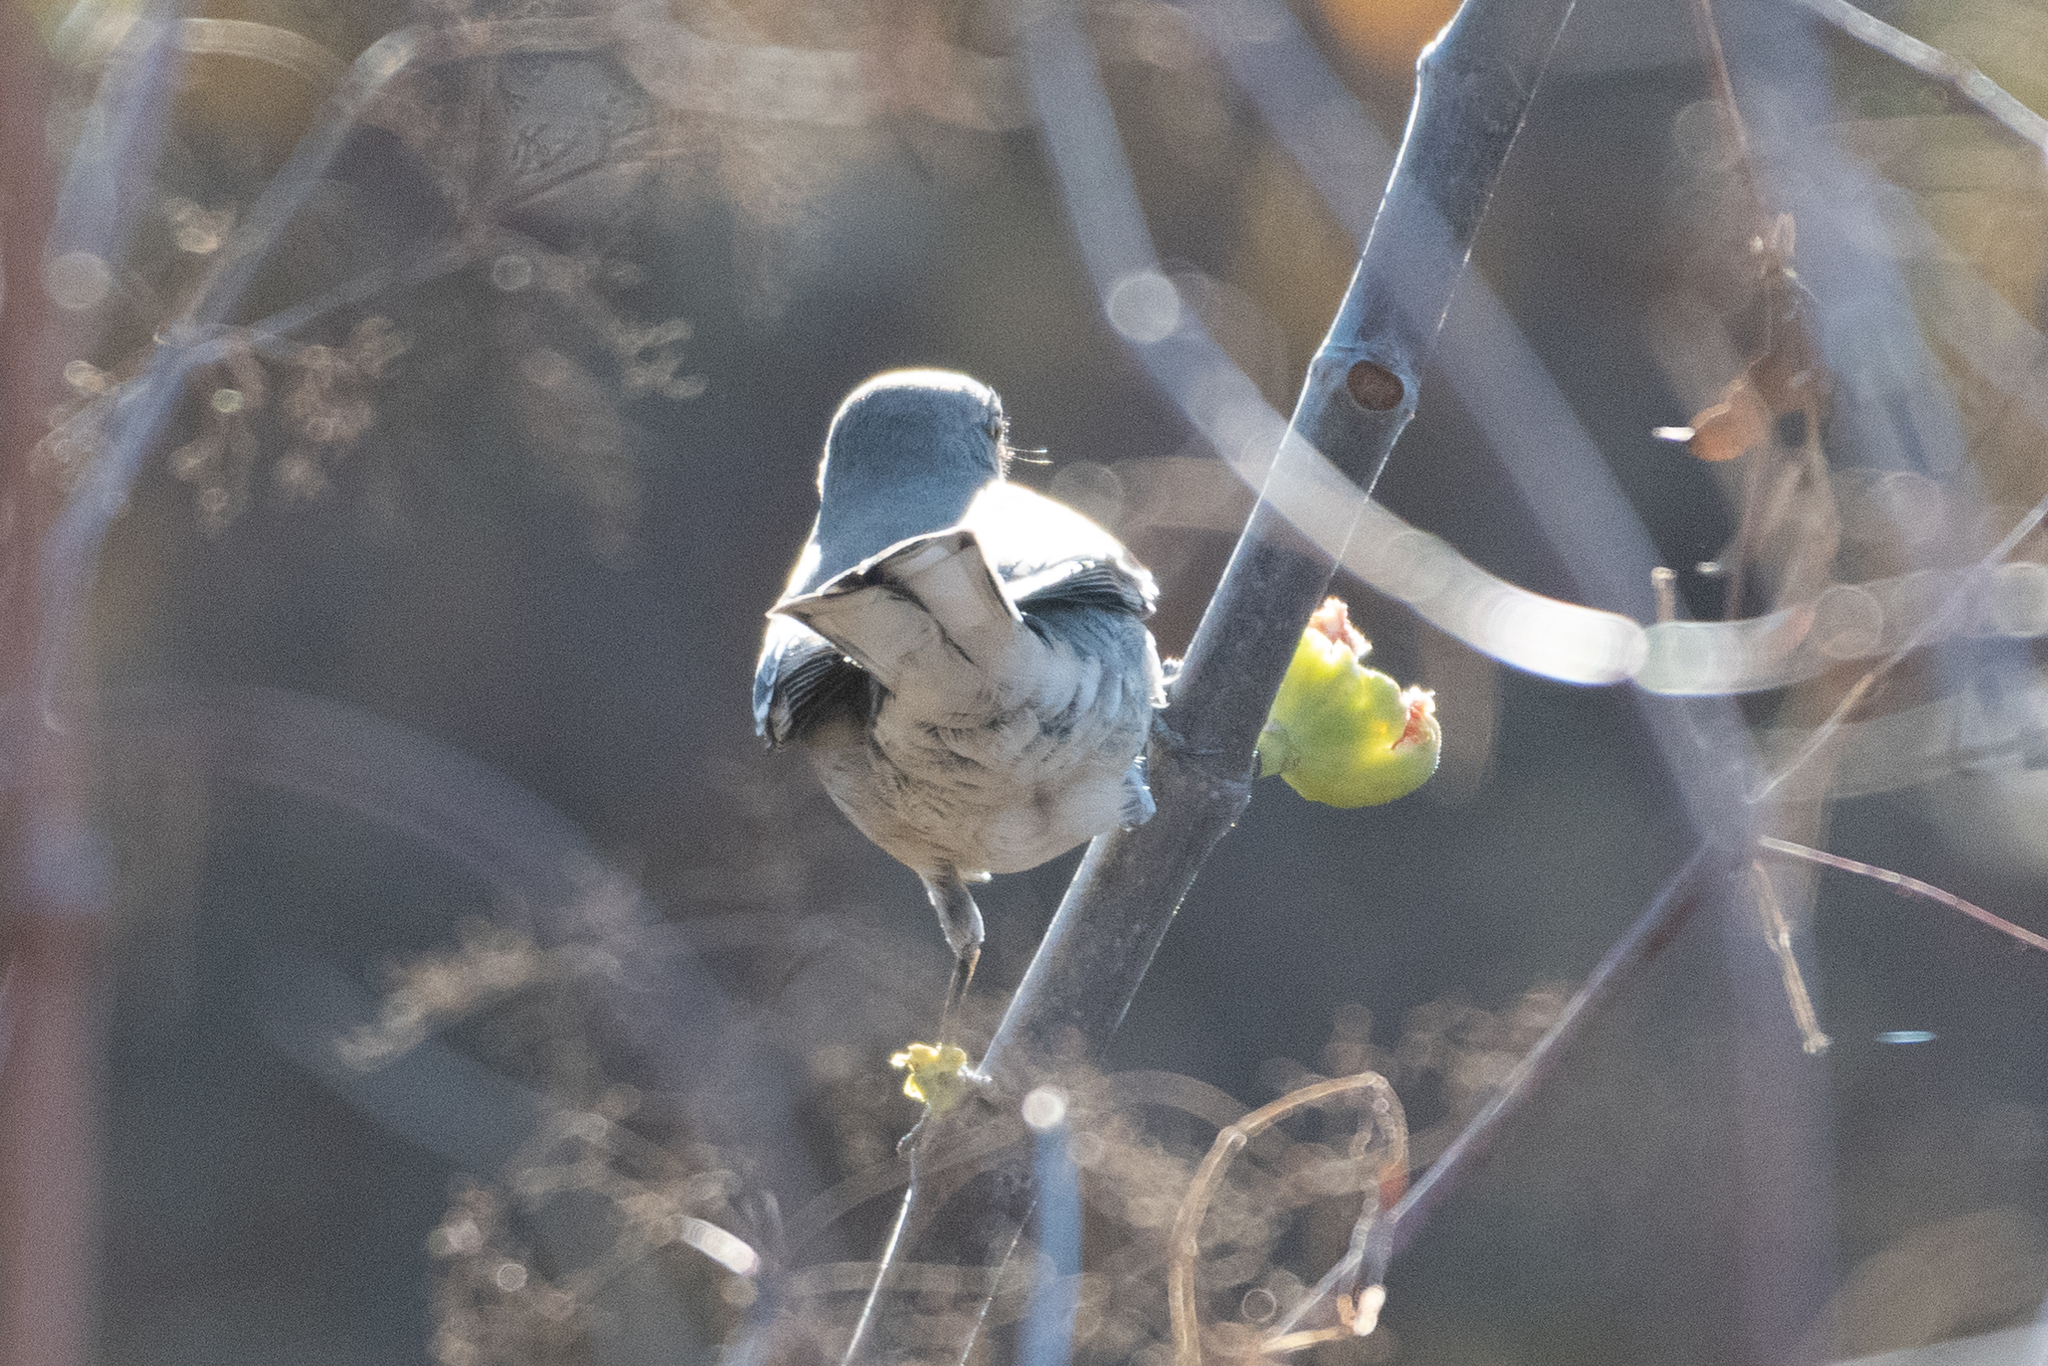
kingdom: Animalia
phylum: Chordata
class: Aves
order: Passeriformes
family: Mimidae
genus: Mimus
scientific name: Mimus polyglottos
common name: Northern mockingbird
